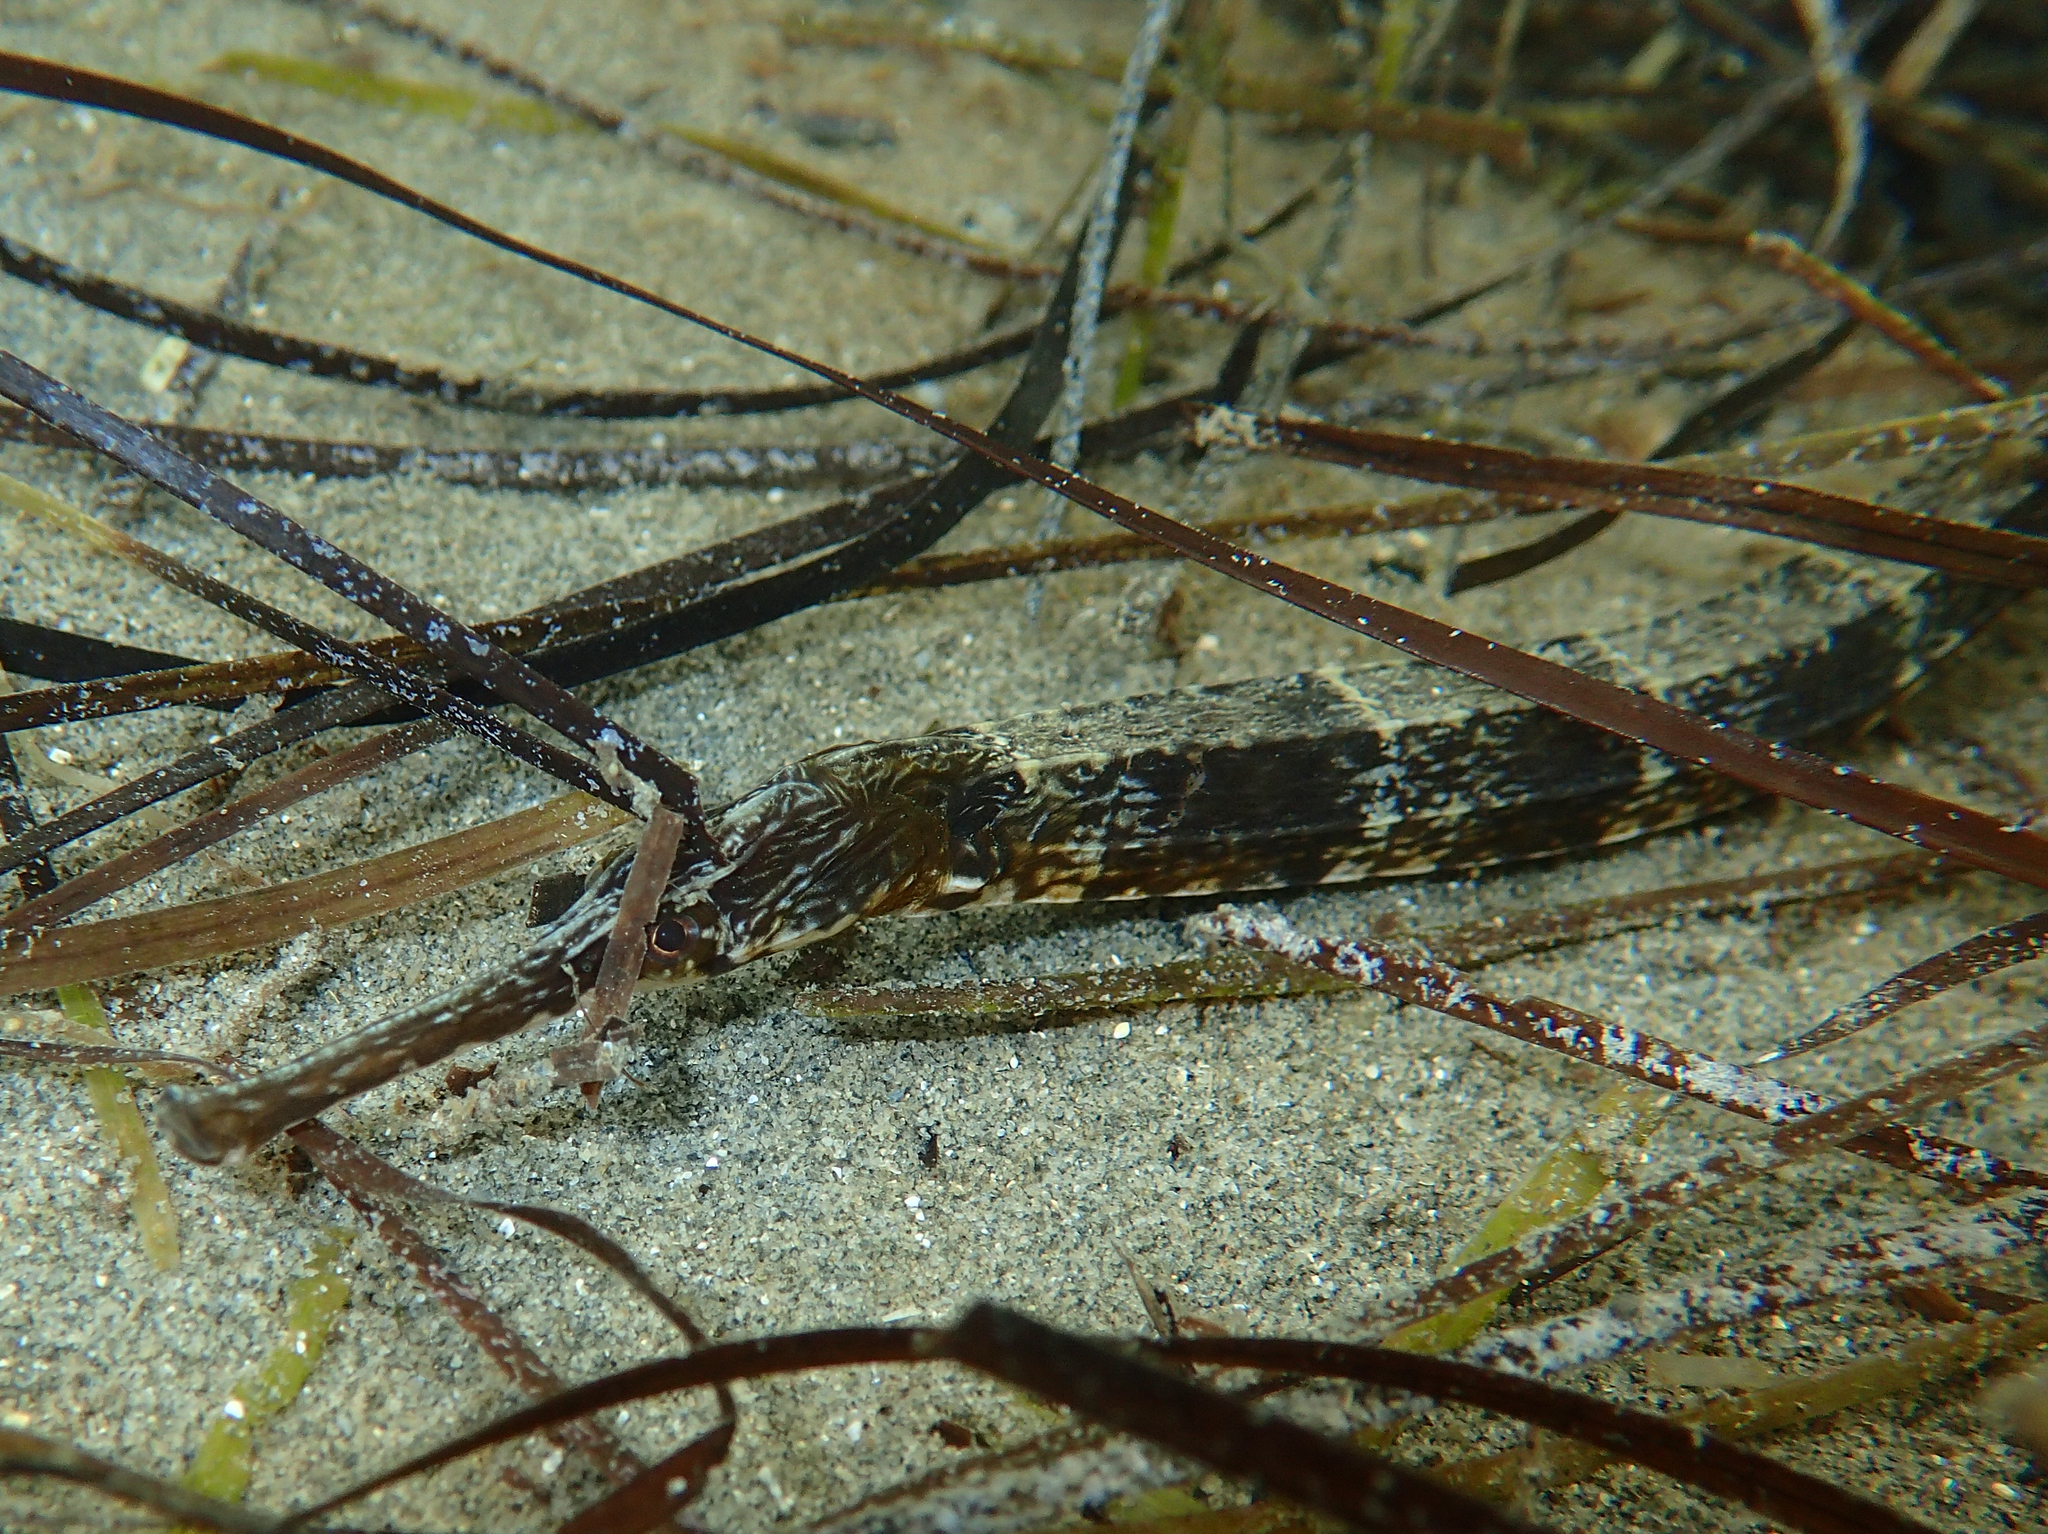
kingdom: Animalia
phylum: Chordata
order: Syngnathiformes
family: Syngnathidae
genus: Syngnathus
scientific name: Syngnathus tenuirostris
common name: Narrow-snouted pipefish
